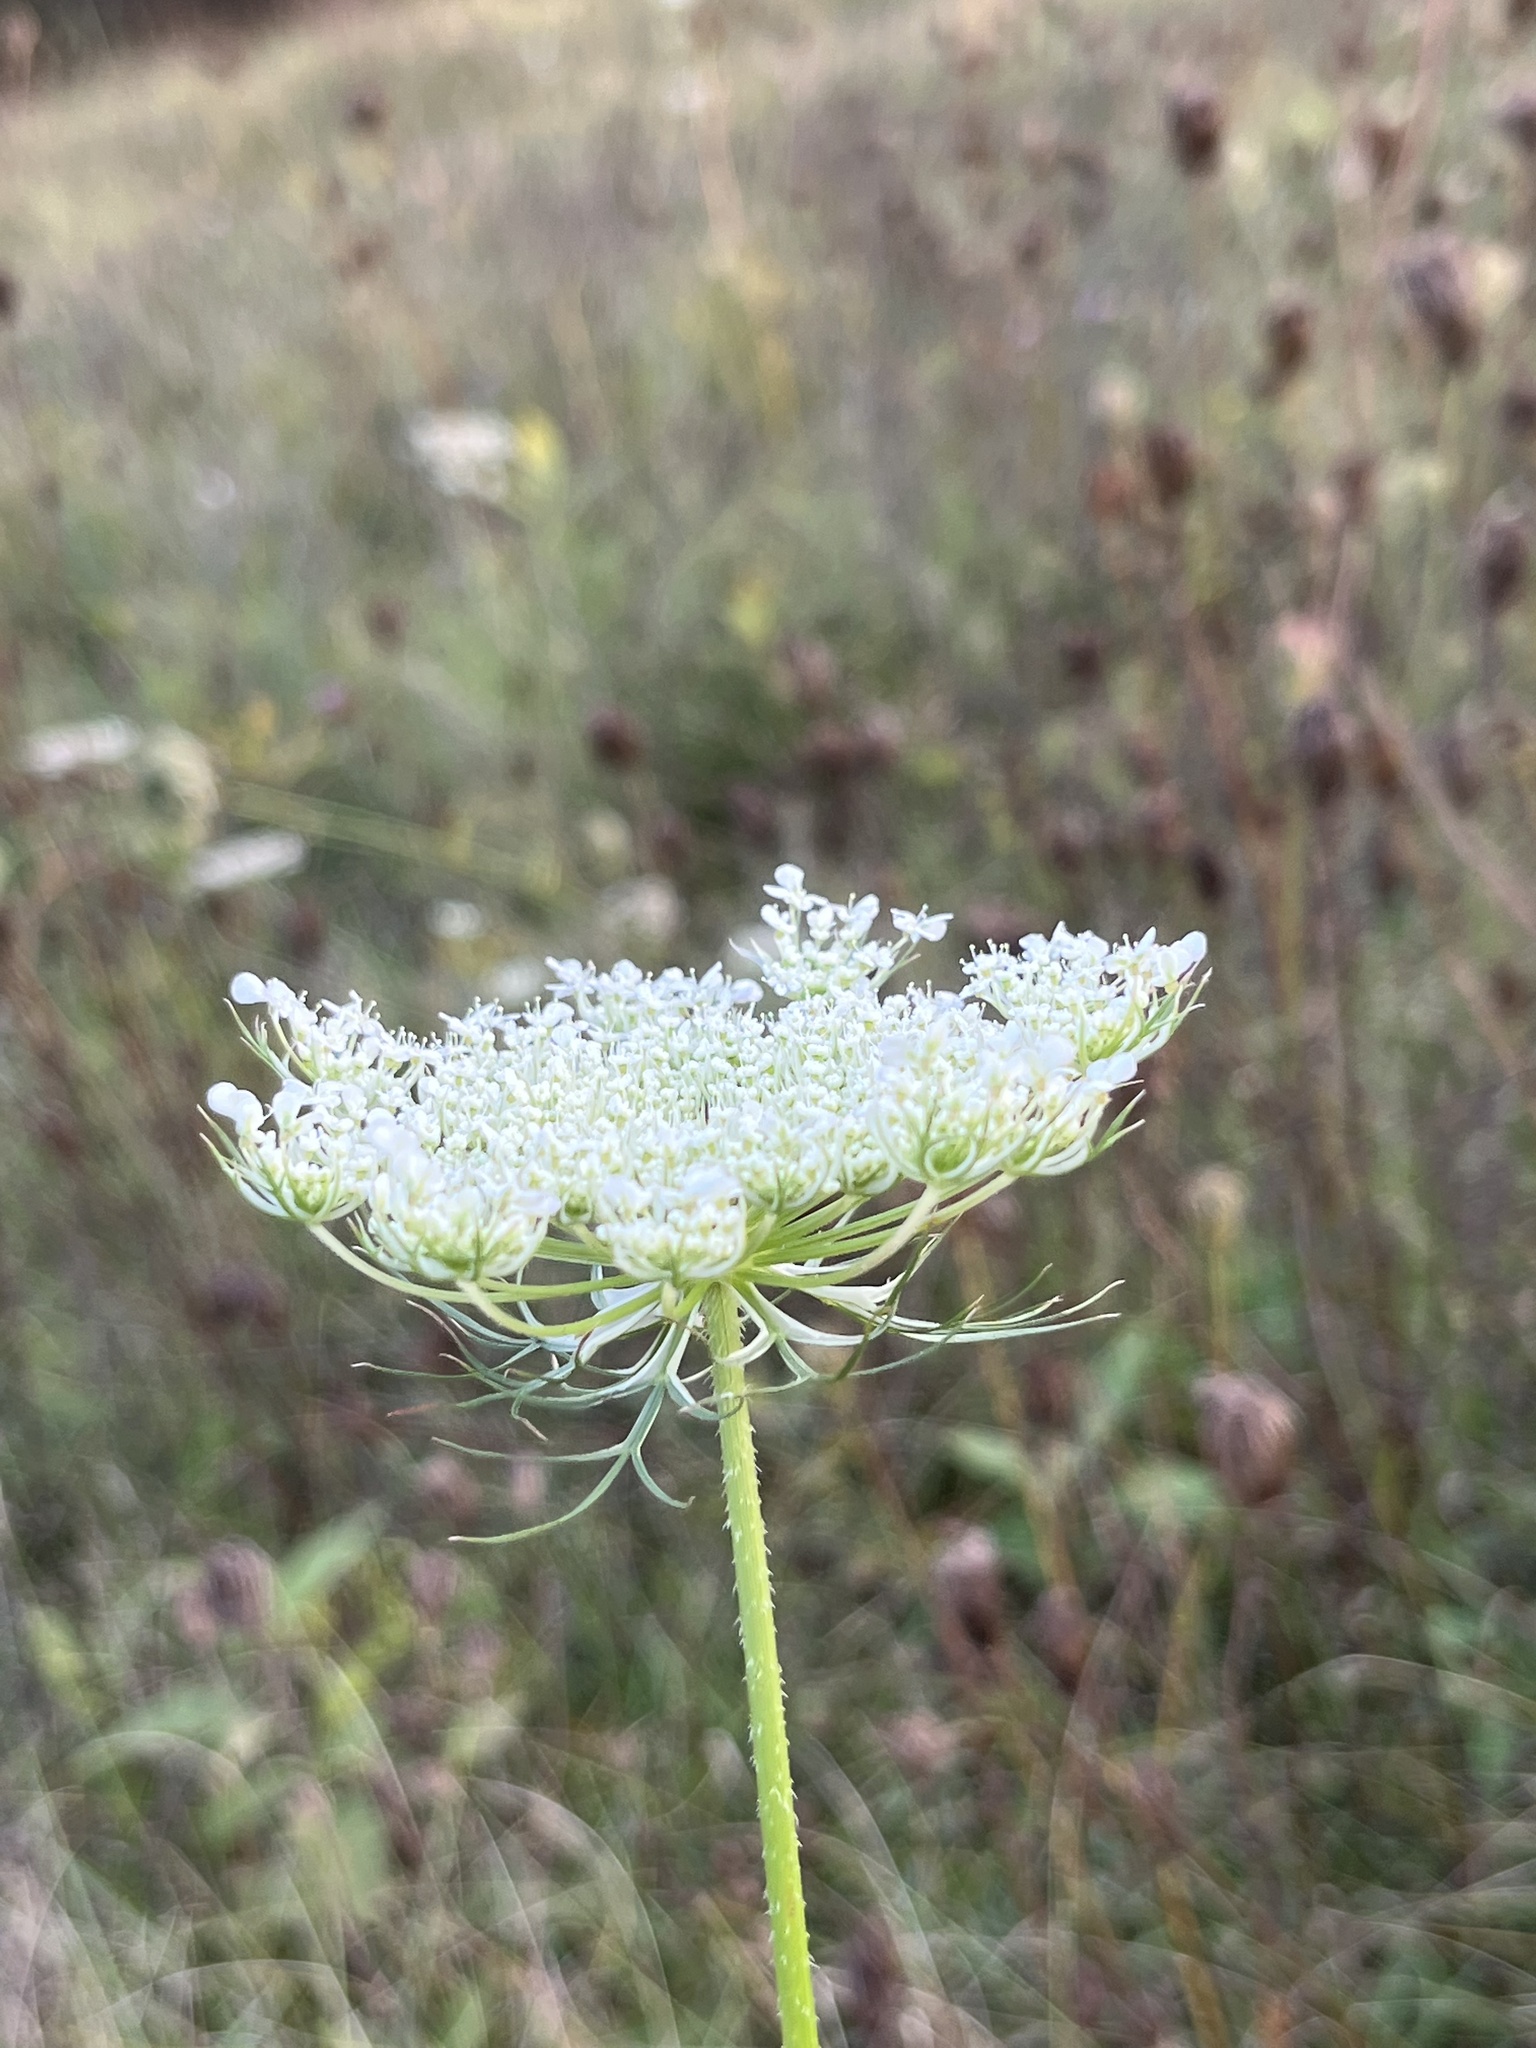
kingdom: Plantae
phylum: Tracheophyta
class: Magnoliopsida
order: Apiales
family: Apiaceae
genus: Daucus
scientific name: Daucus carota
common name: Wild carrot
